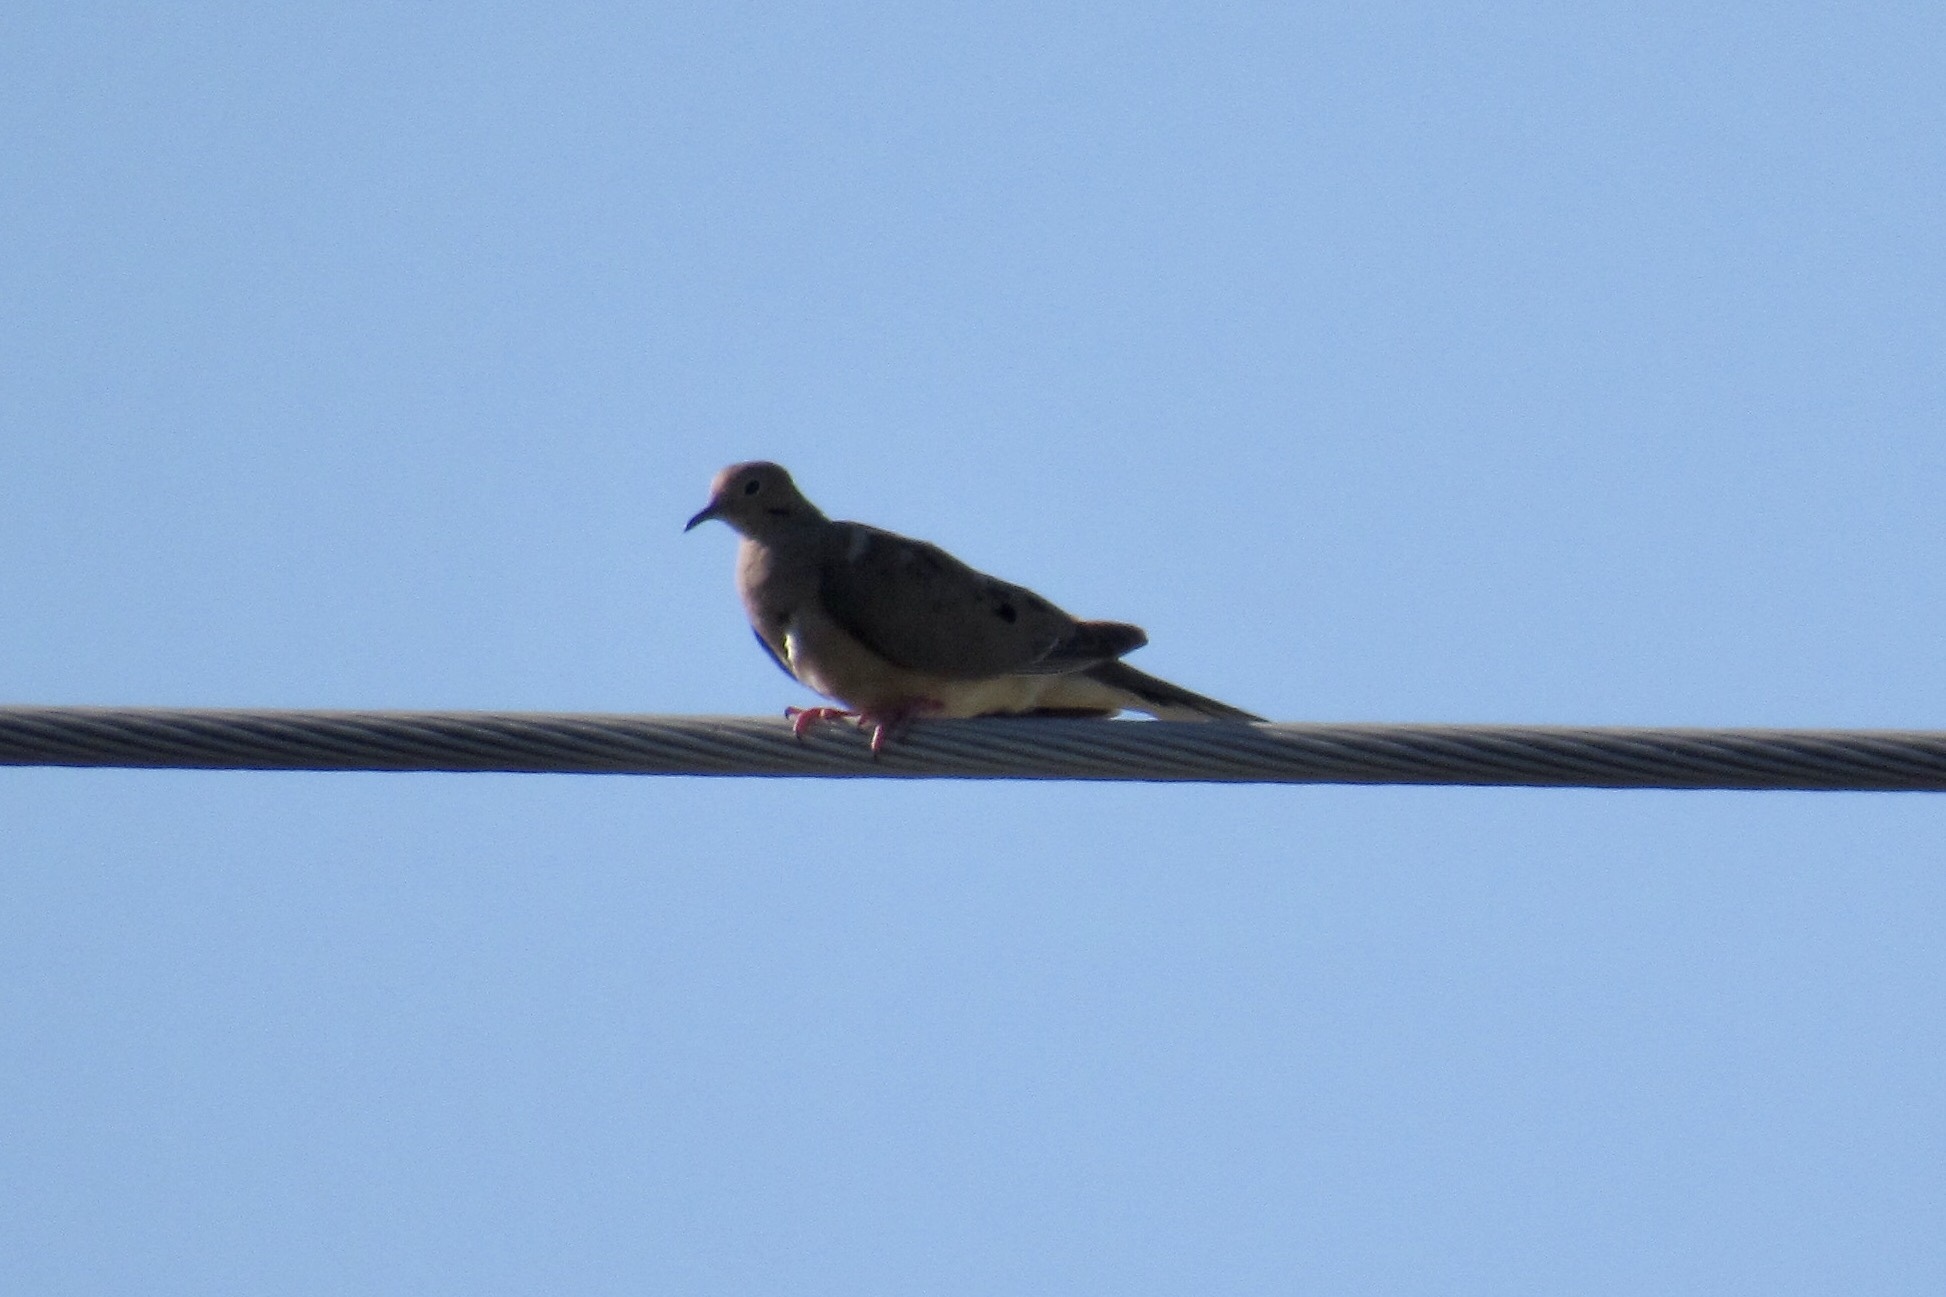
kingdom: Animalia
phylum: Chordata
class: Aves
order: Columbiformes
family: Columbidae
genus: Zenaida
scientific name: Zenaida macroura
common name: Mourning dove
